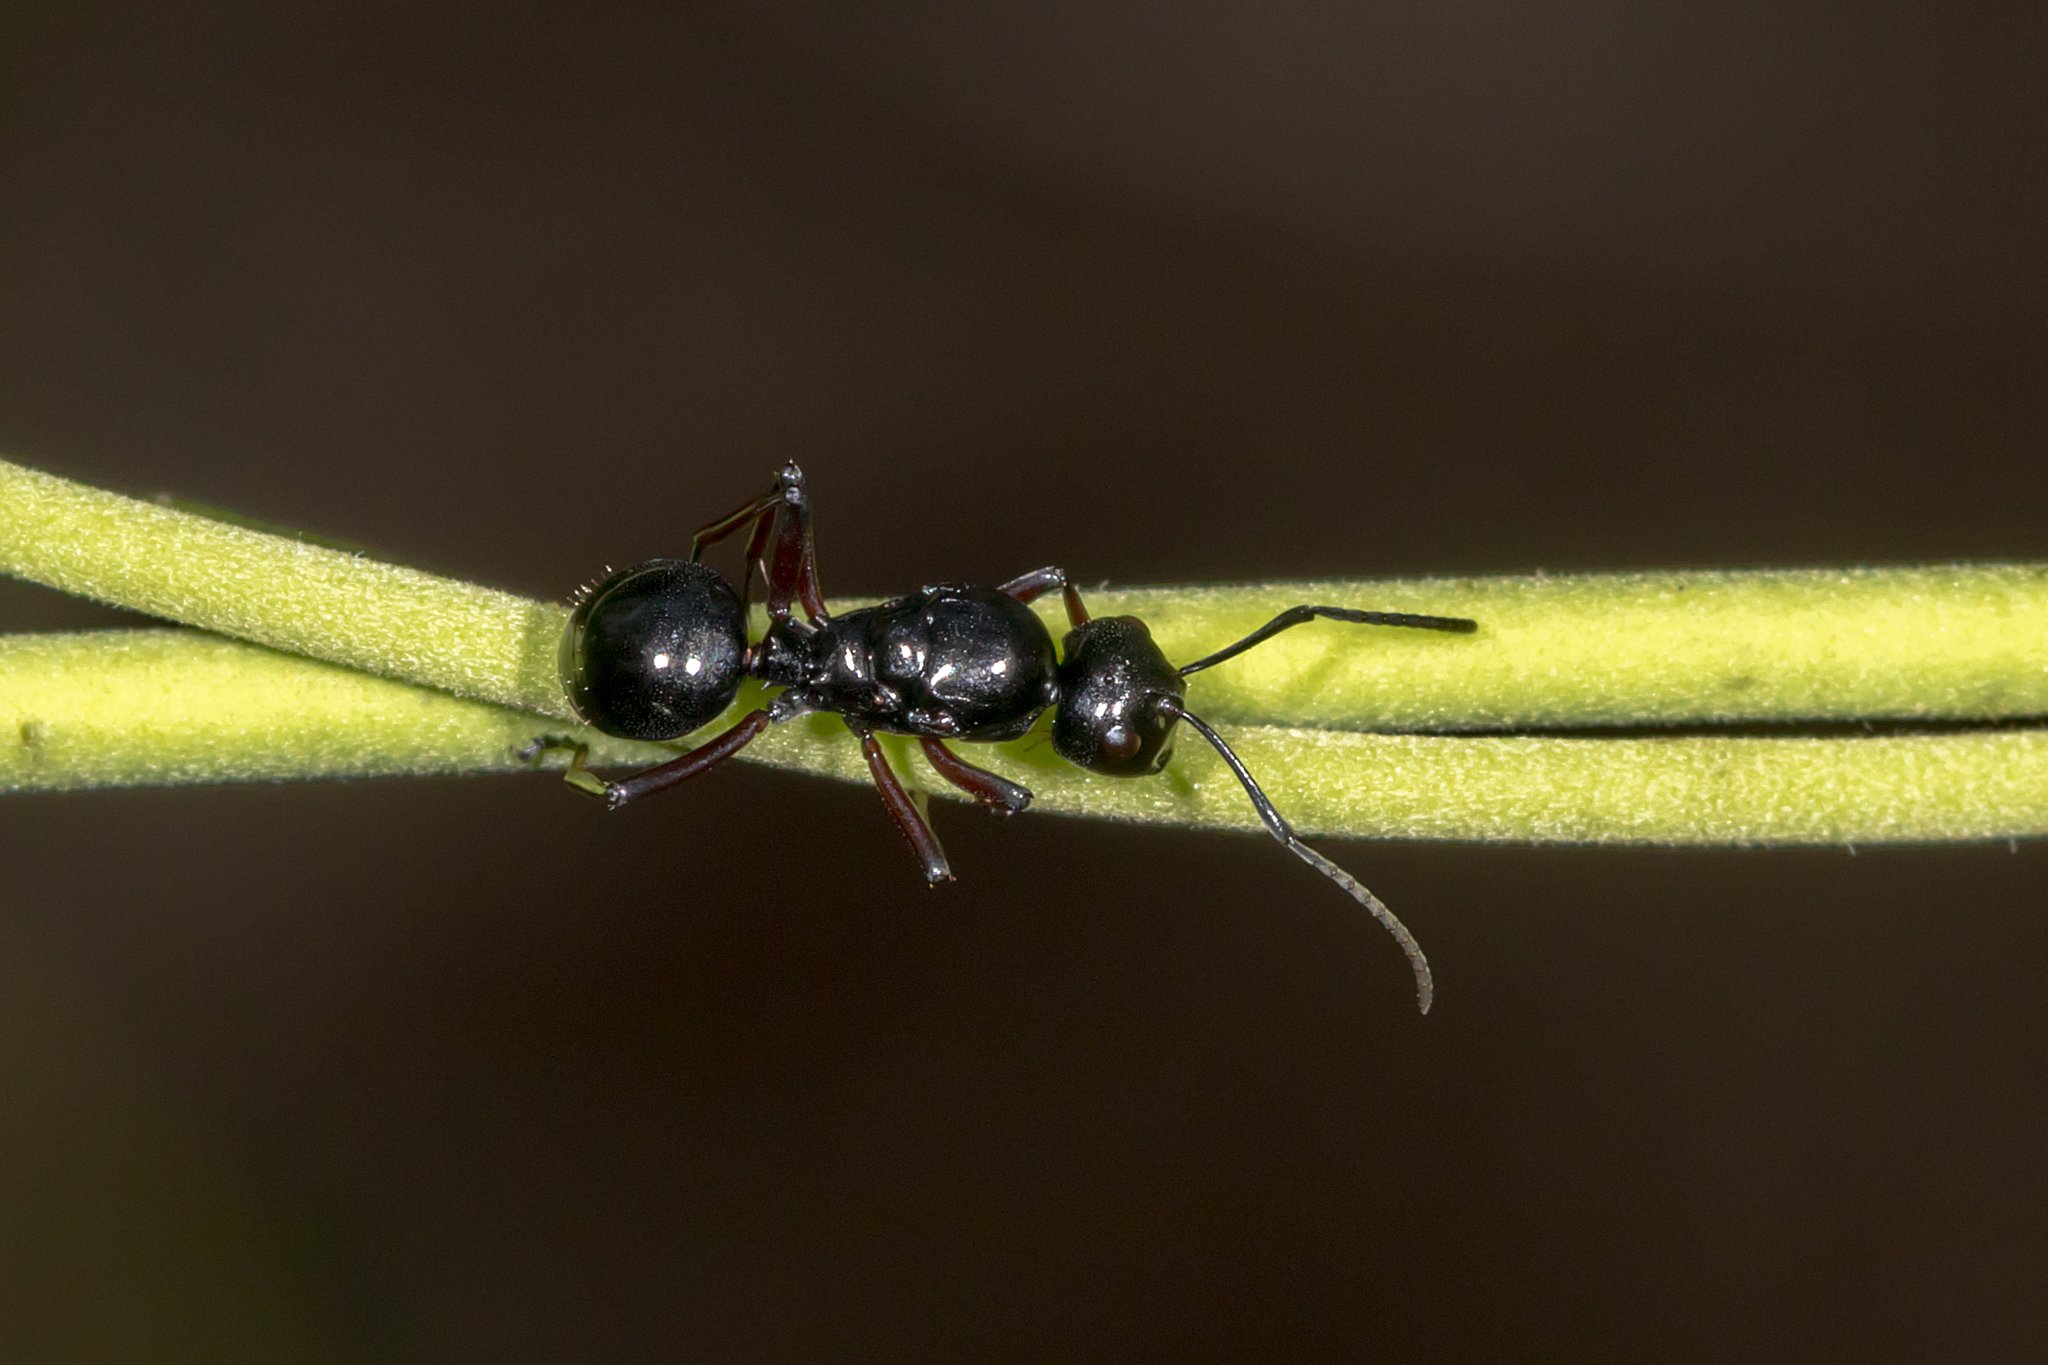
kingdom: Animalia
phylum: Arthropoda
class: Insecta
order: Hymenoptera
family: Formicidae
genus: Polyrhachis
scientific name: Polyrhachis australis
